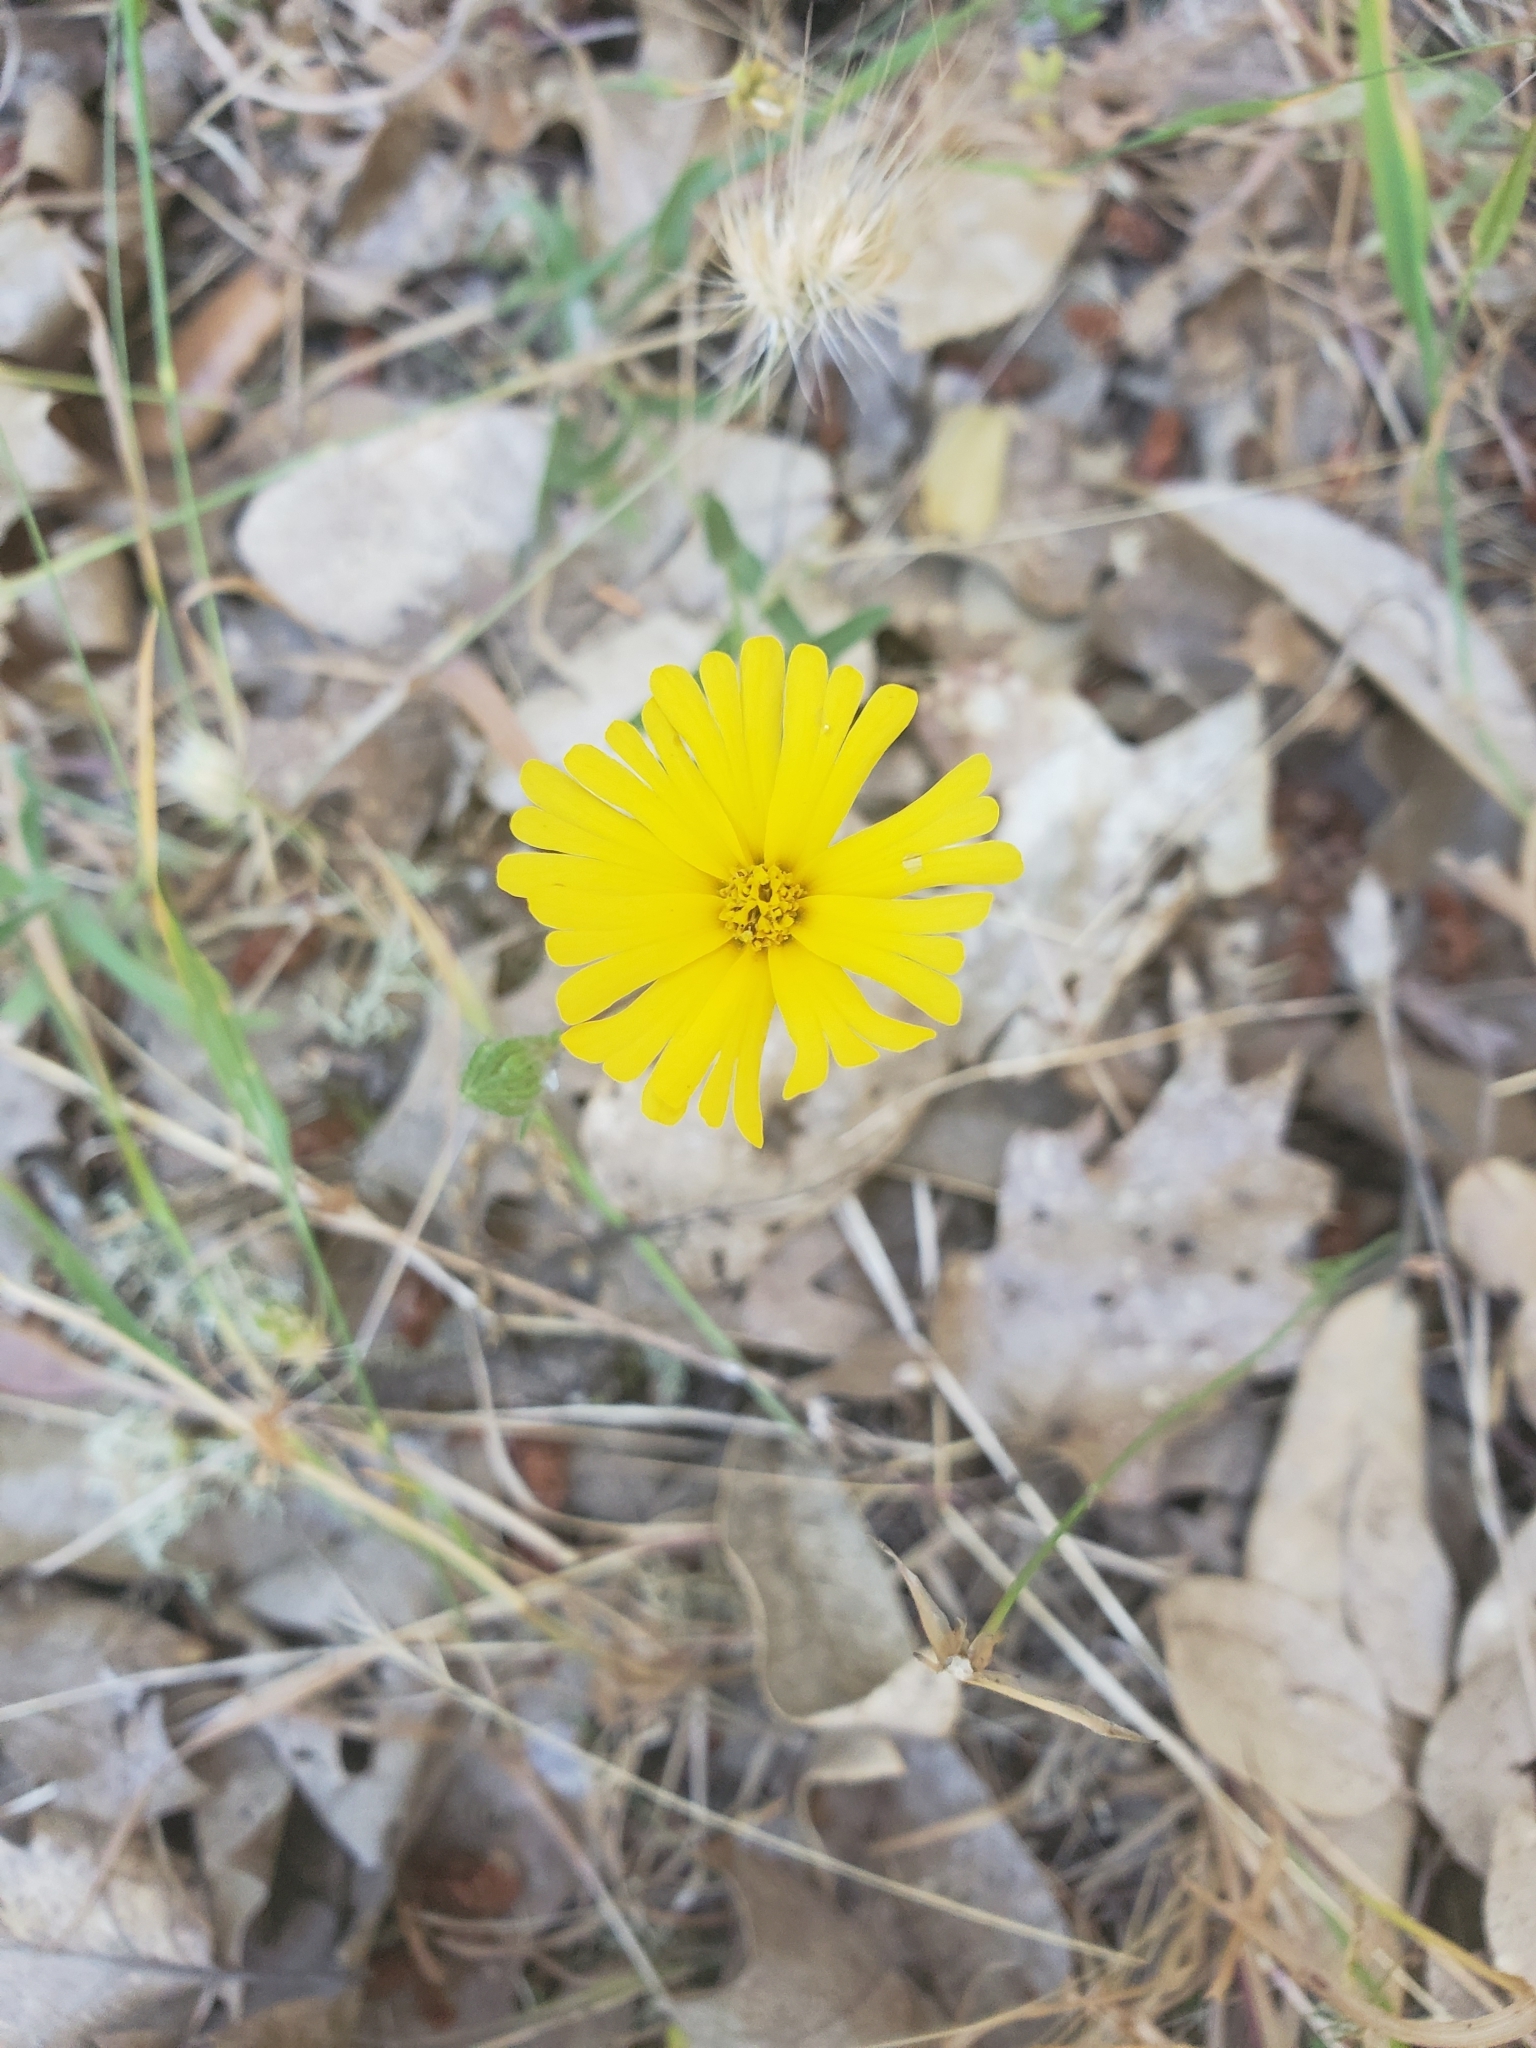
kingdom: Plantae
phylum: Tracheophyta
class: Magnoliopsida
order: Asterales
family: Asteraceae
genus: Madia
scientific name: Madia elegans
